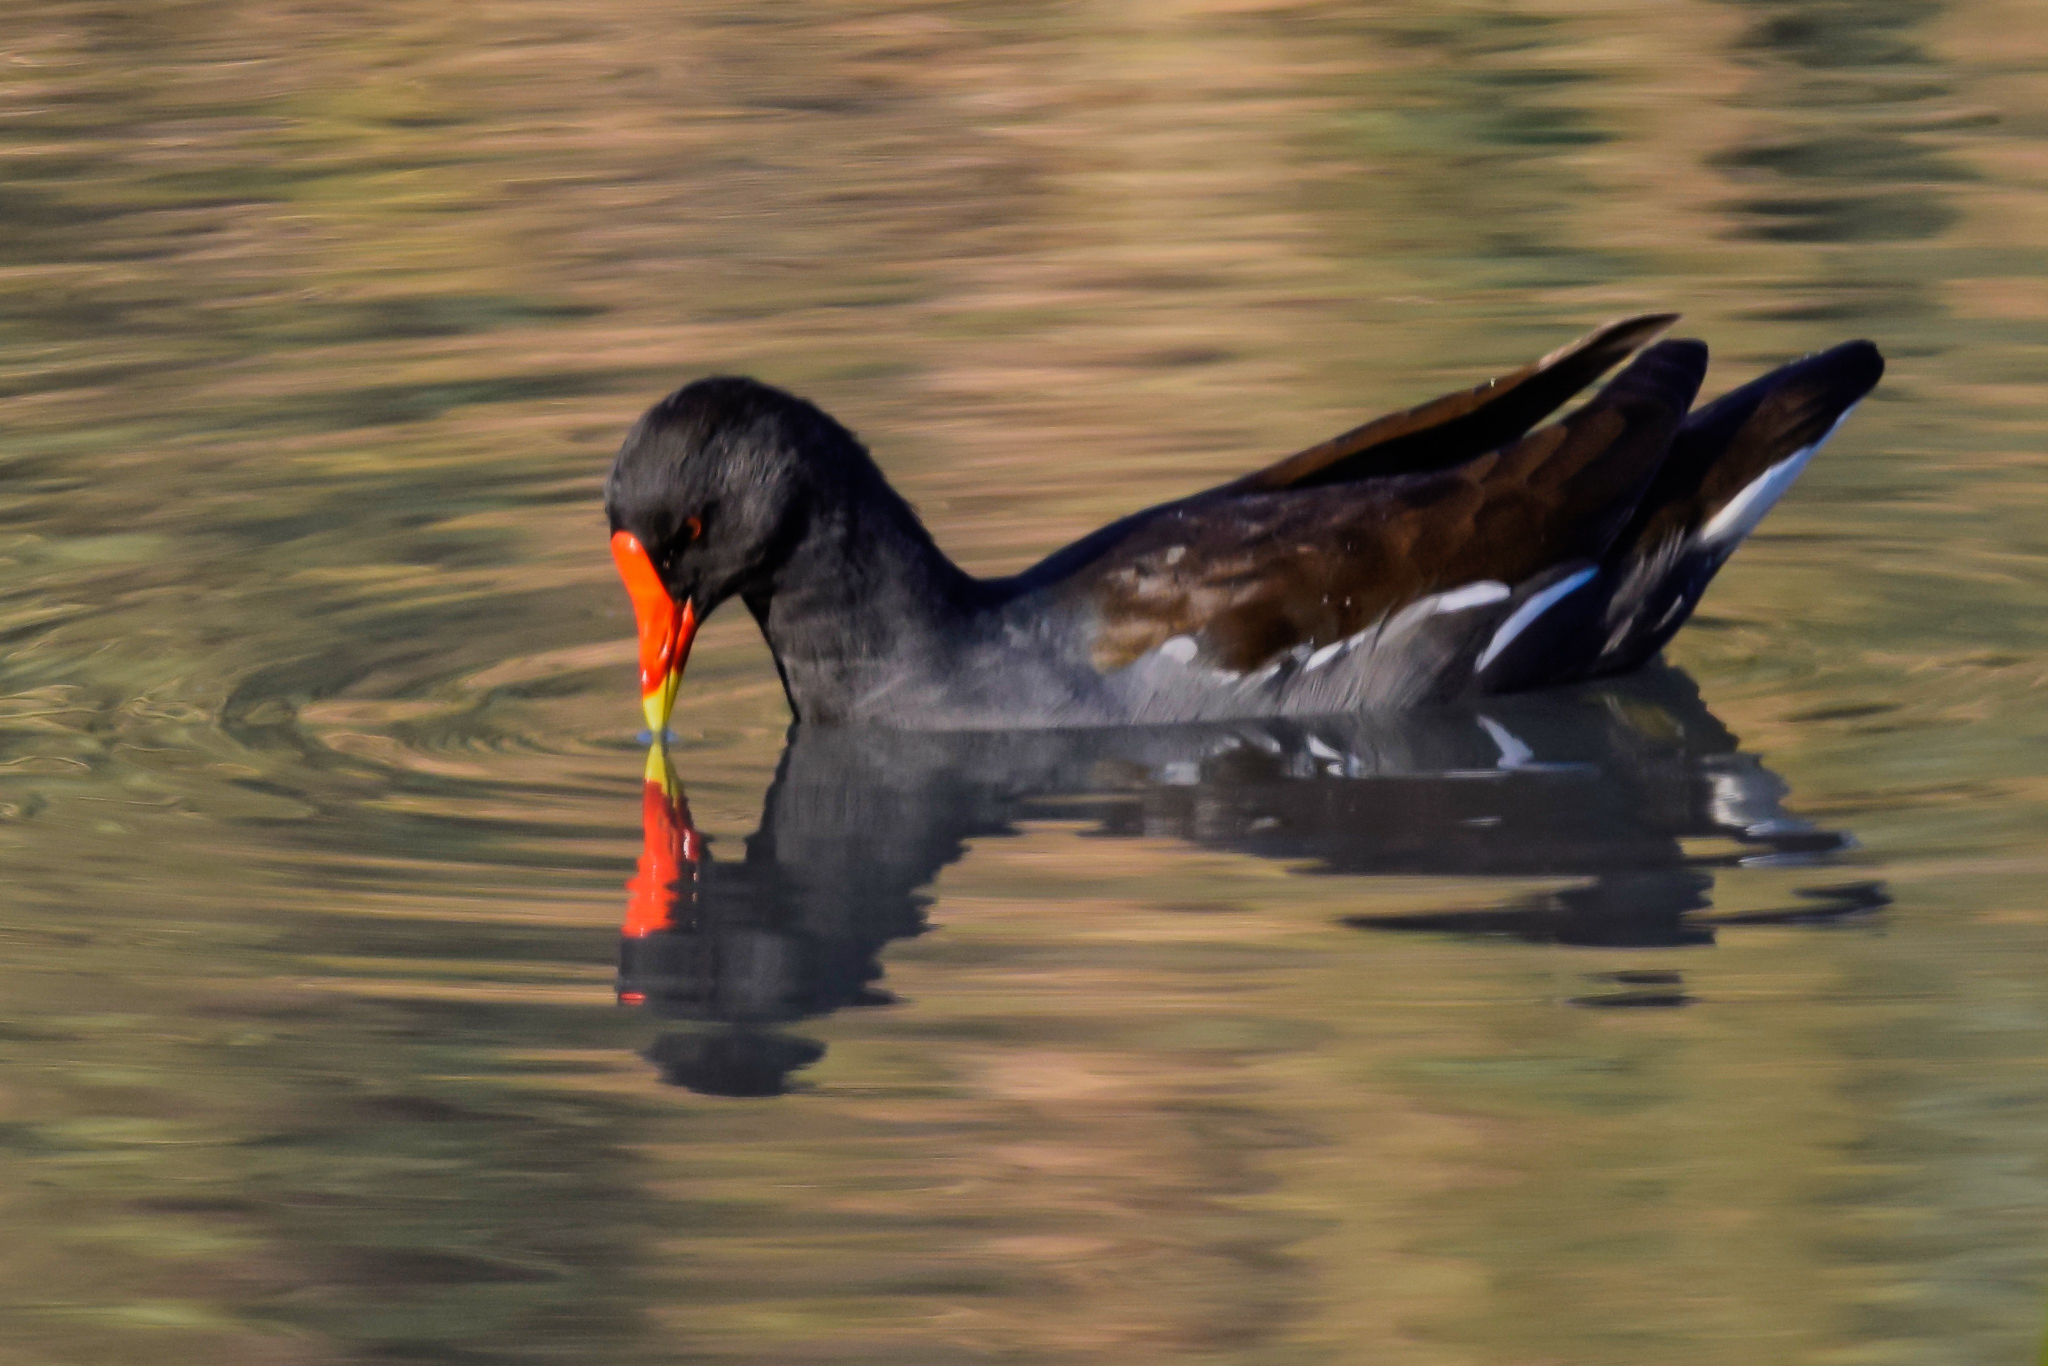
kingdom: Animalia
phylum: Chordata
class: Aves
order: Gruiformes
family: Rallidae
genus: Gallinula
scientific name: Gallinula chloropus
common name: Common moorhen
